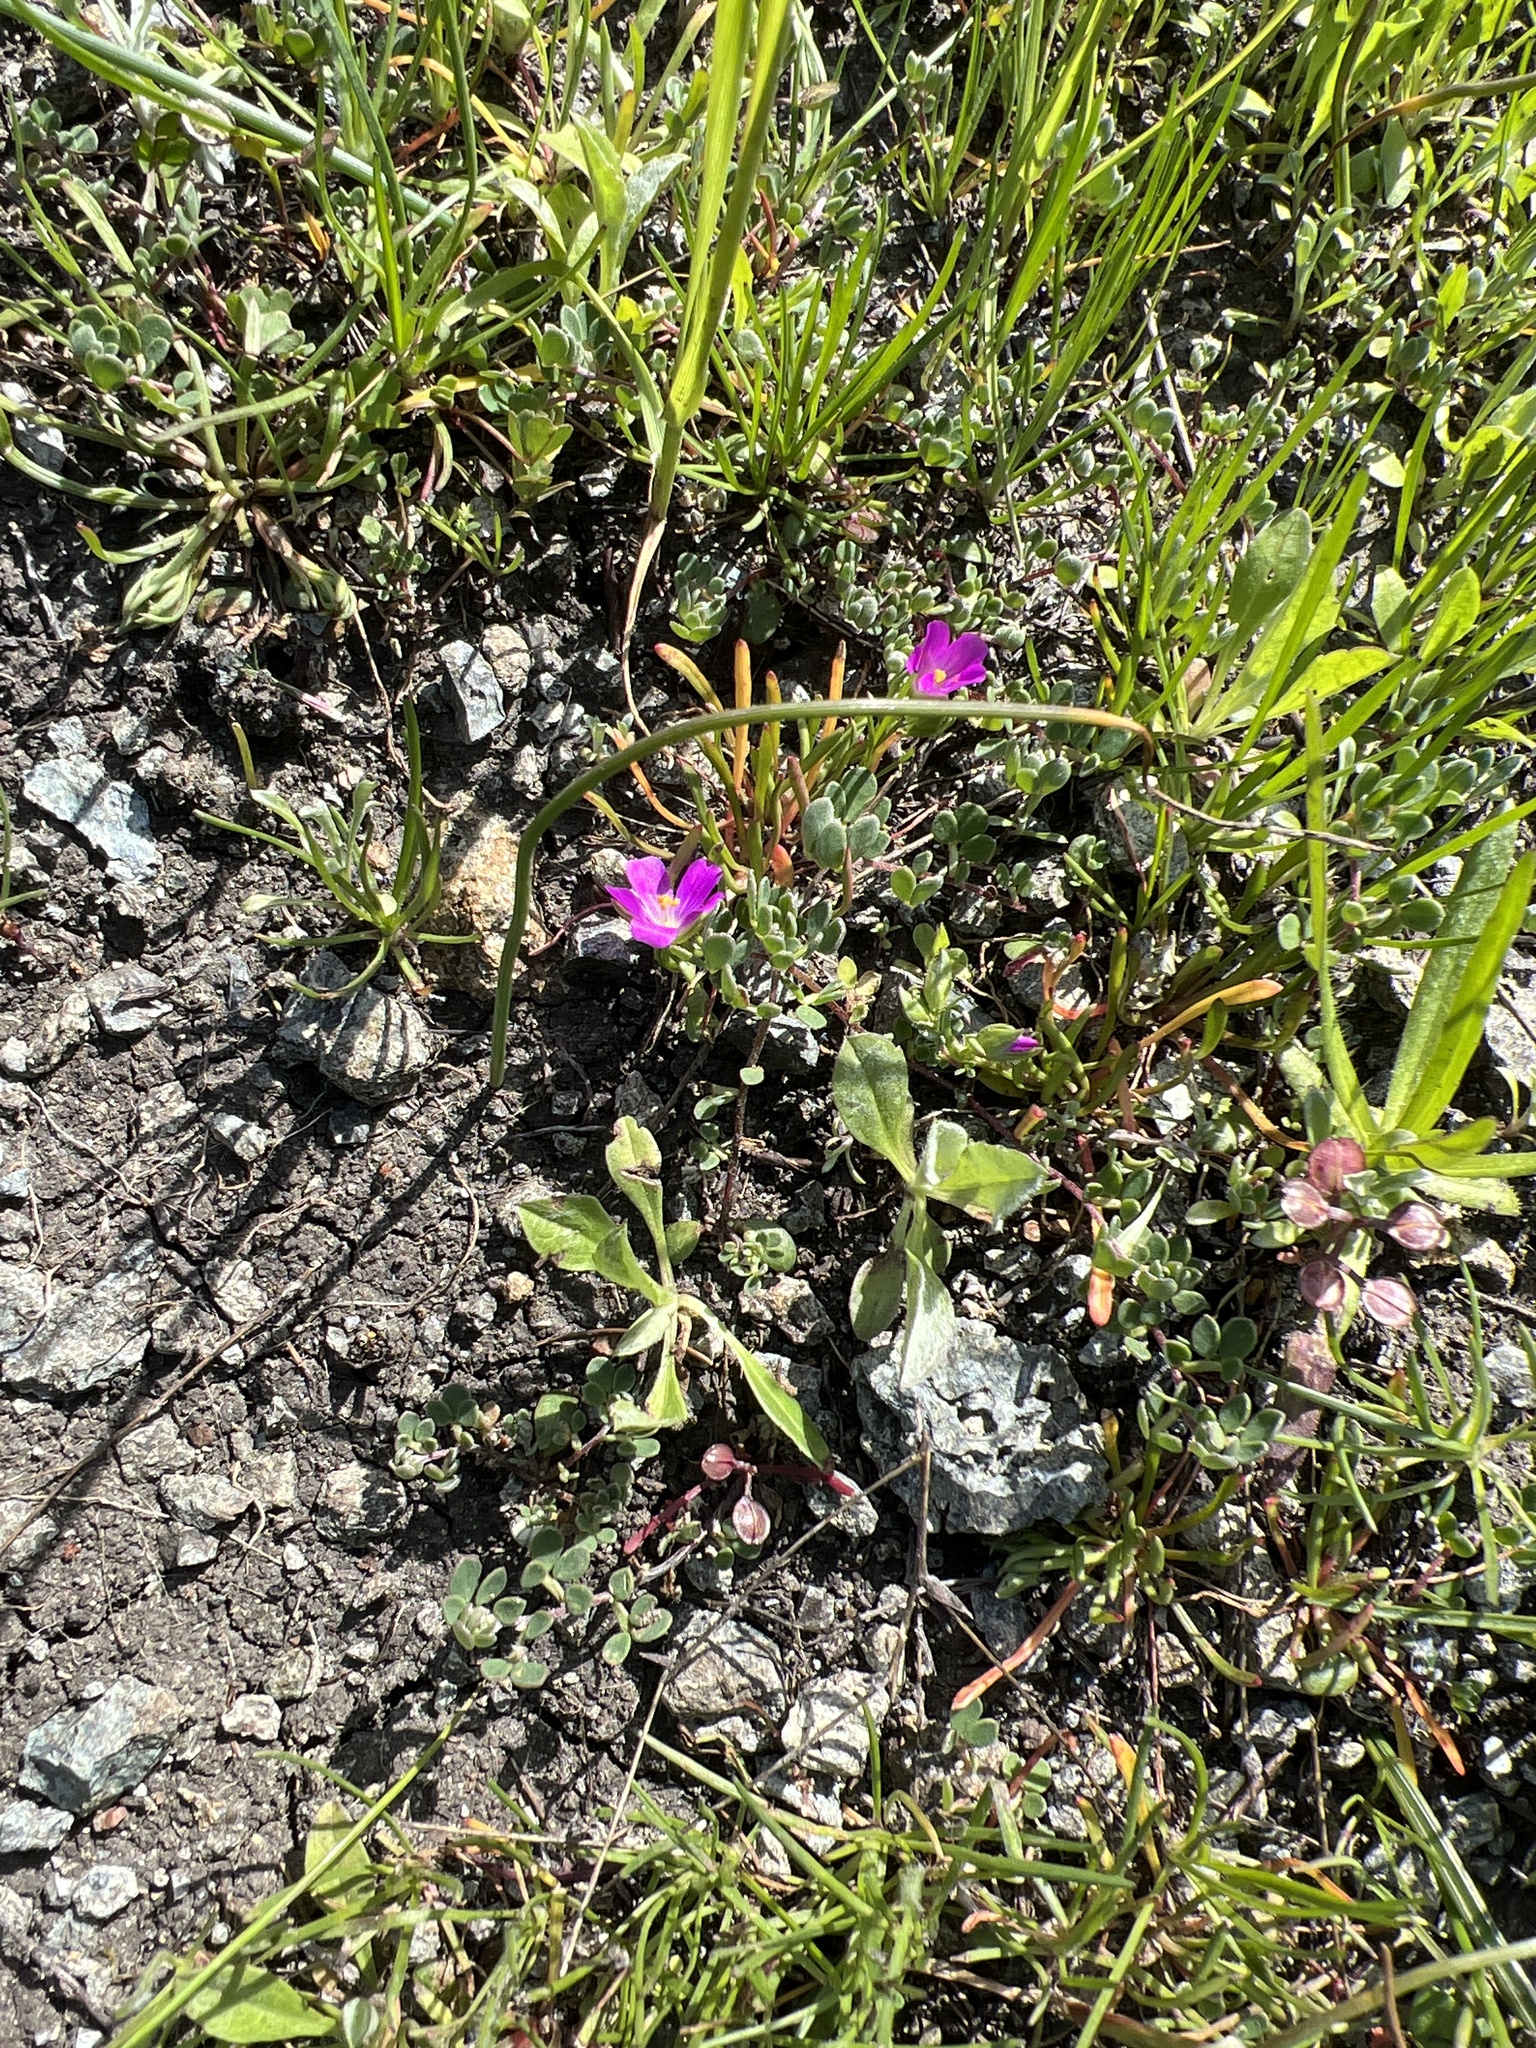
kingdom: Plantae
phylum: Tracheophyta
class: Magnoliopsida
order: Caryophyllales
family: Montiaceae
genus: Calandrinia
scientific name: Calandrinia menziesii
